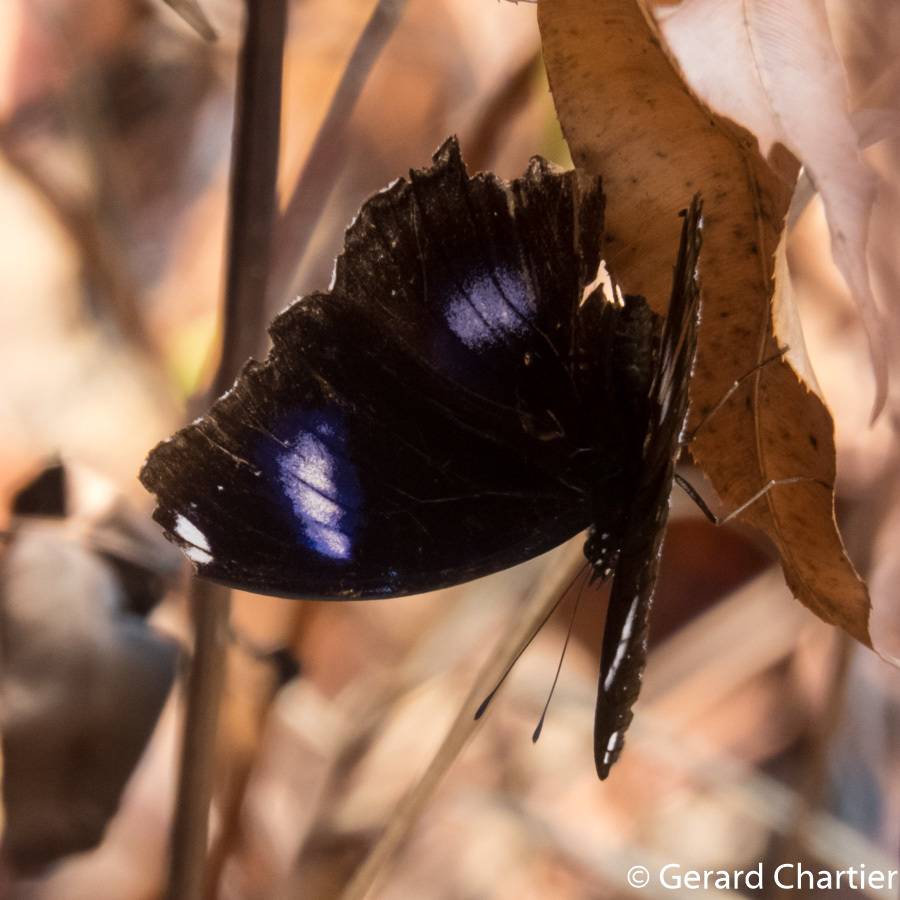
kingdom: Animalia
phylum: Arthropoda
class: Insecta
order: Lepidoptera
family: Nymphalidae
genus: Hypolimnas
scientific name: Hypolimnas bolina
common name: Great eggfly
